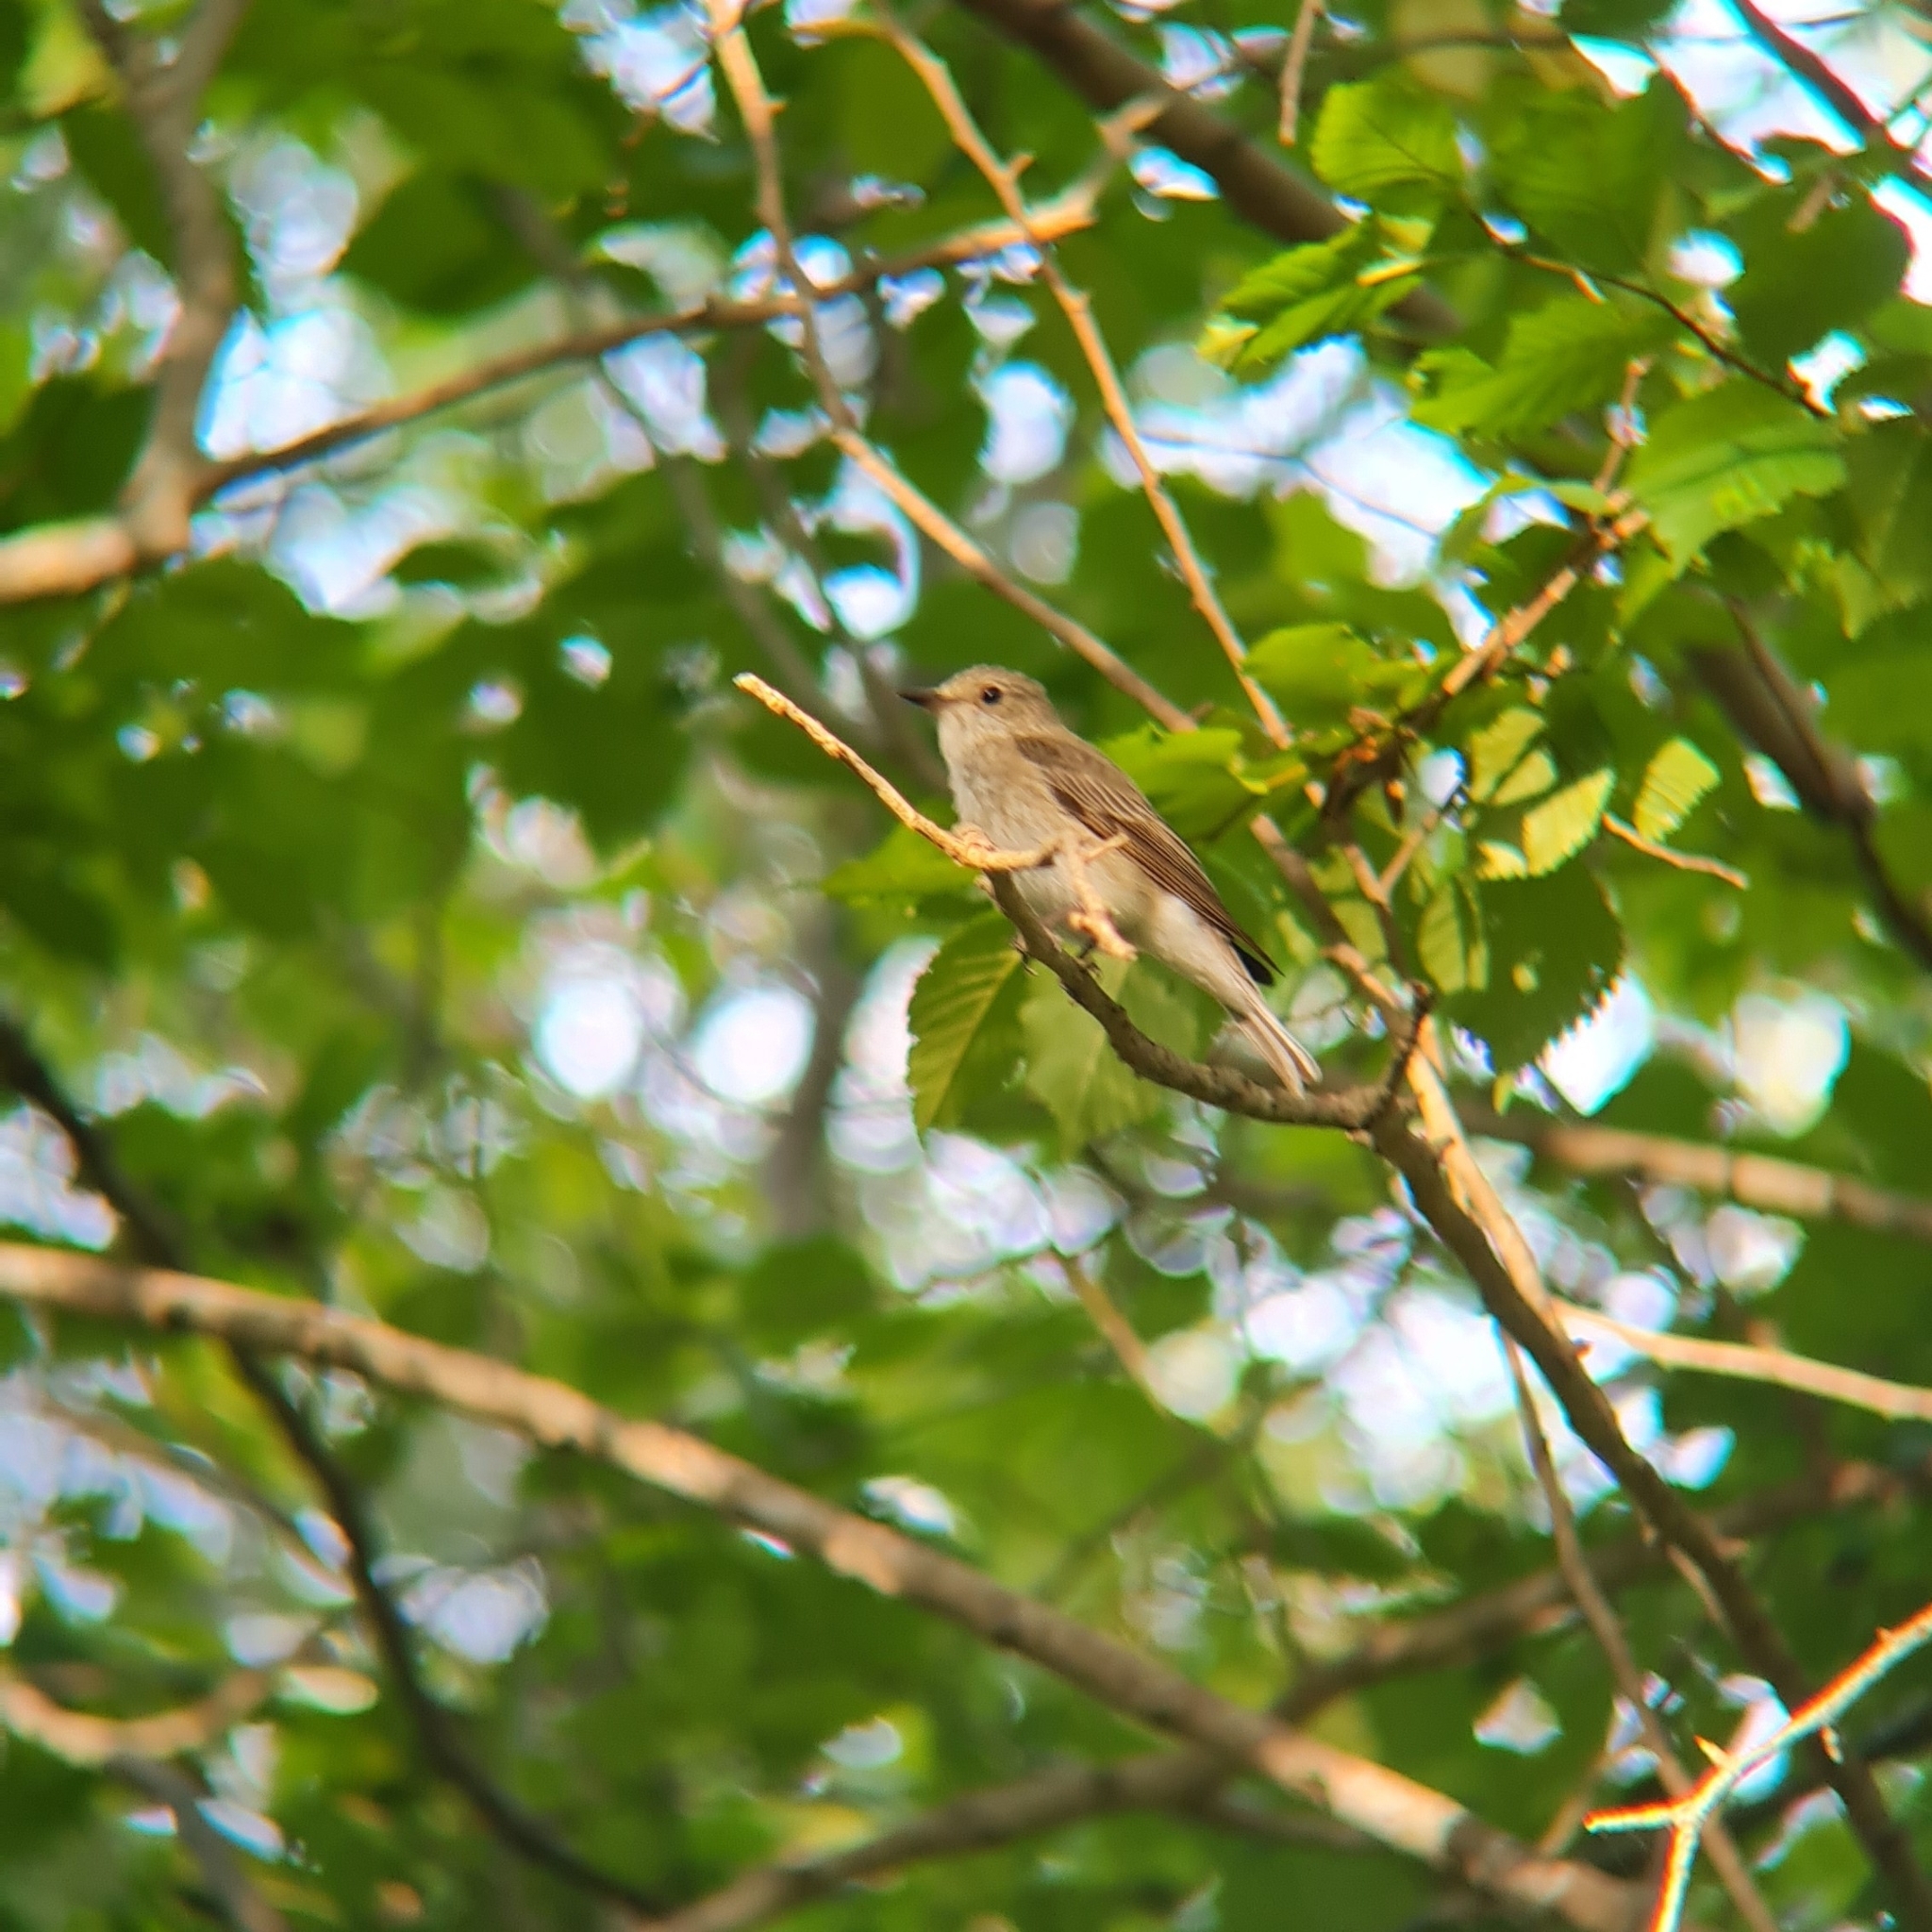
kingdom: Animalia
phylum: Chordata
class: Aves
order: Passeriformes
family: Muscicapidae
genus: Muscicapa
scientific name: Muscicapa striata
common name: Spotted flycatcher
